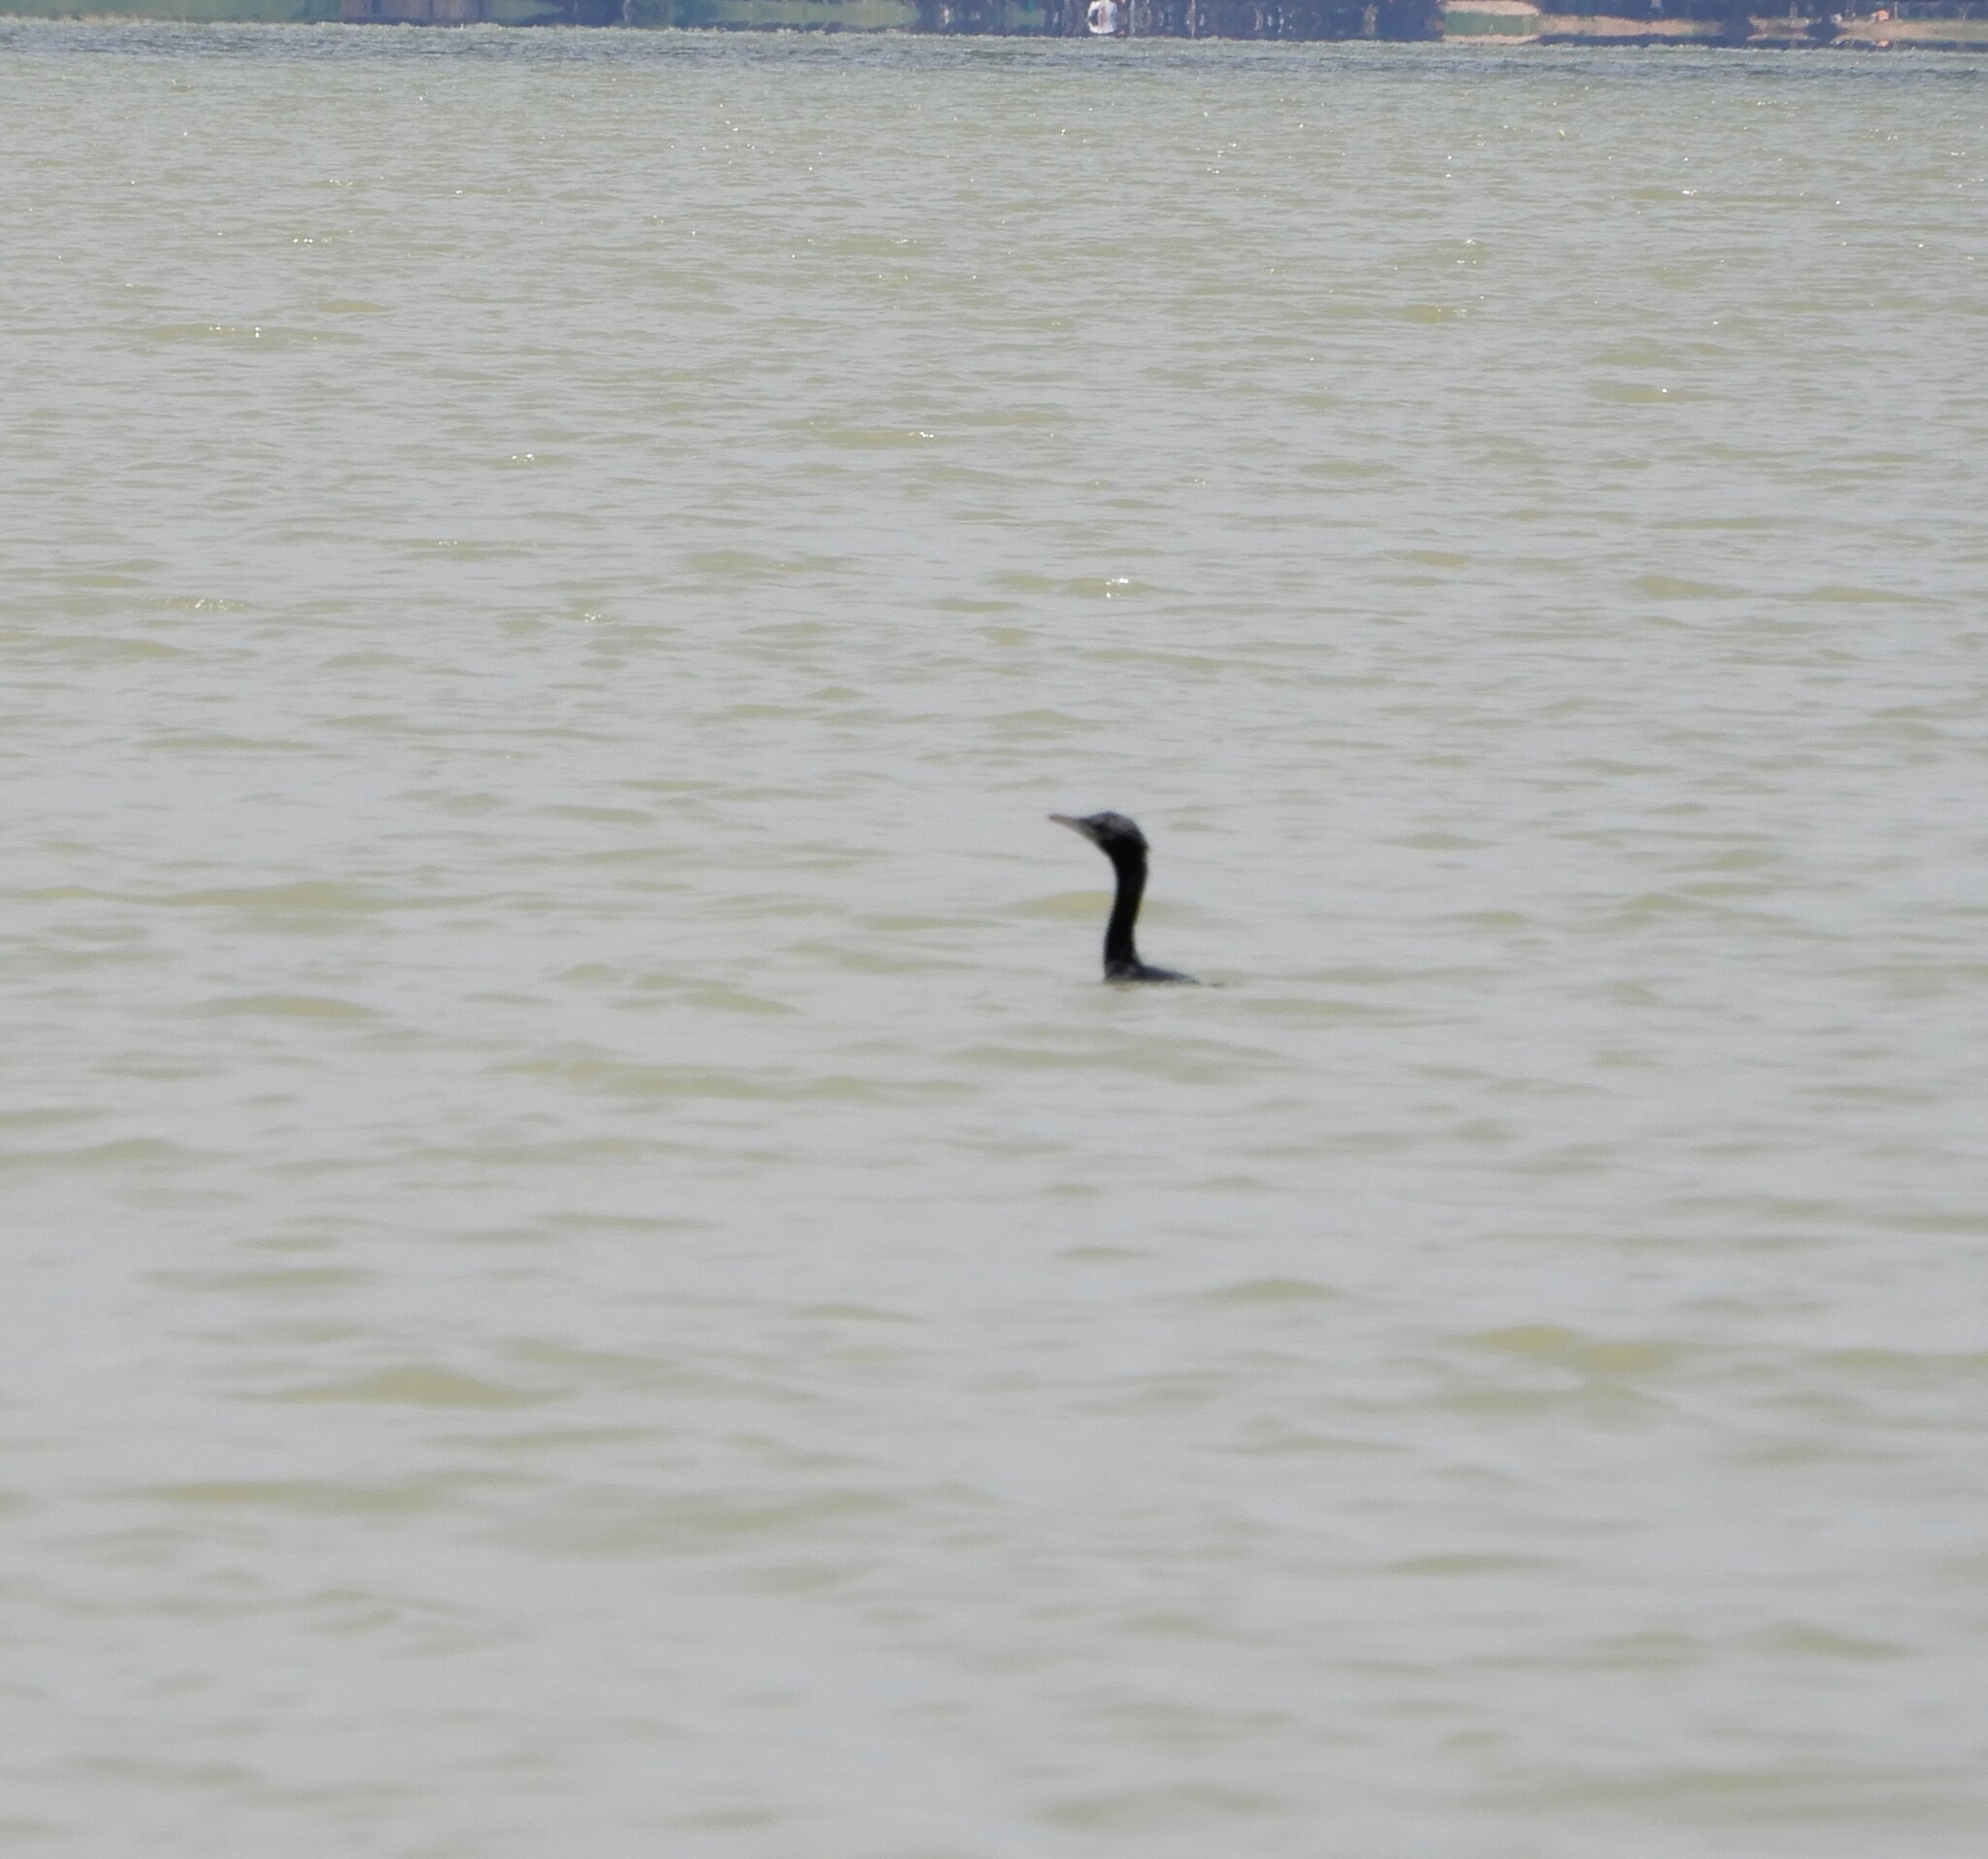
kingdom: Animalia
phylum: Chordata
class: Aves
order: Suliformes
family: Phalacrocoracidae
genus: Microcarbo
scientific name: Microcarbo niger
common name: Little cormorant
